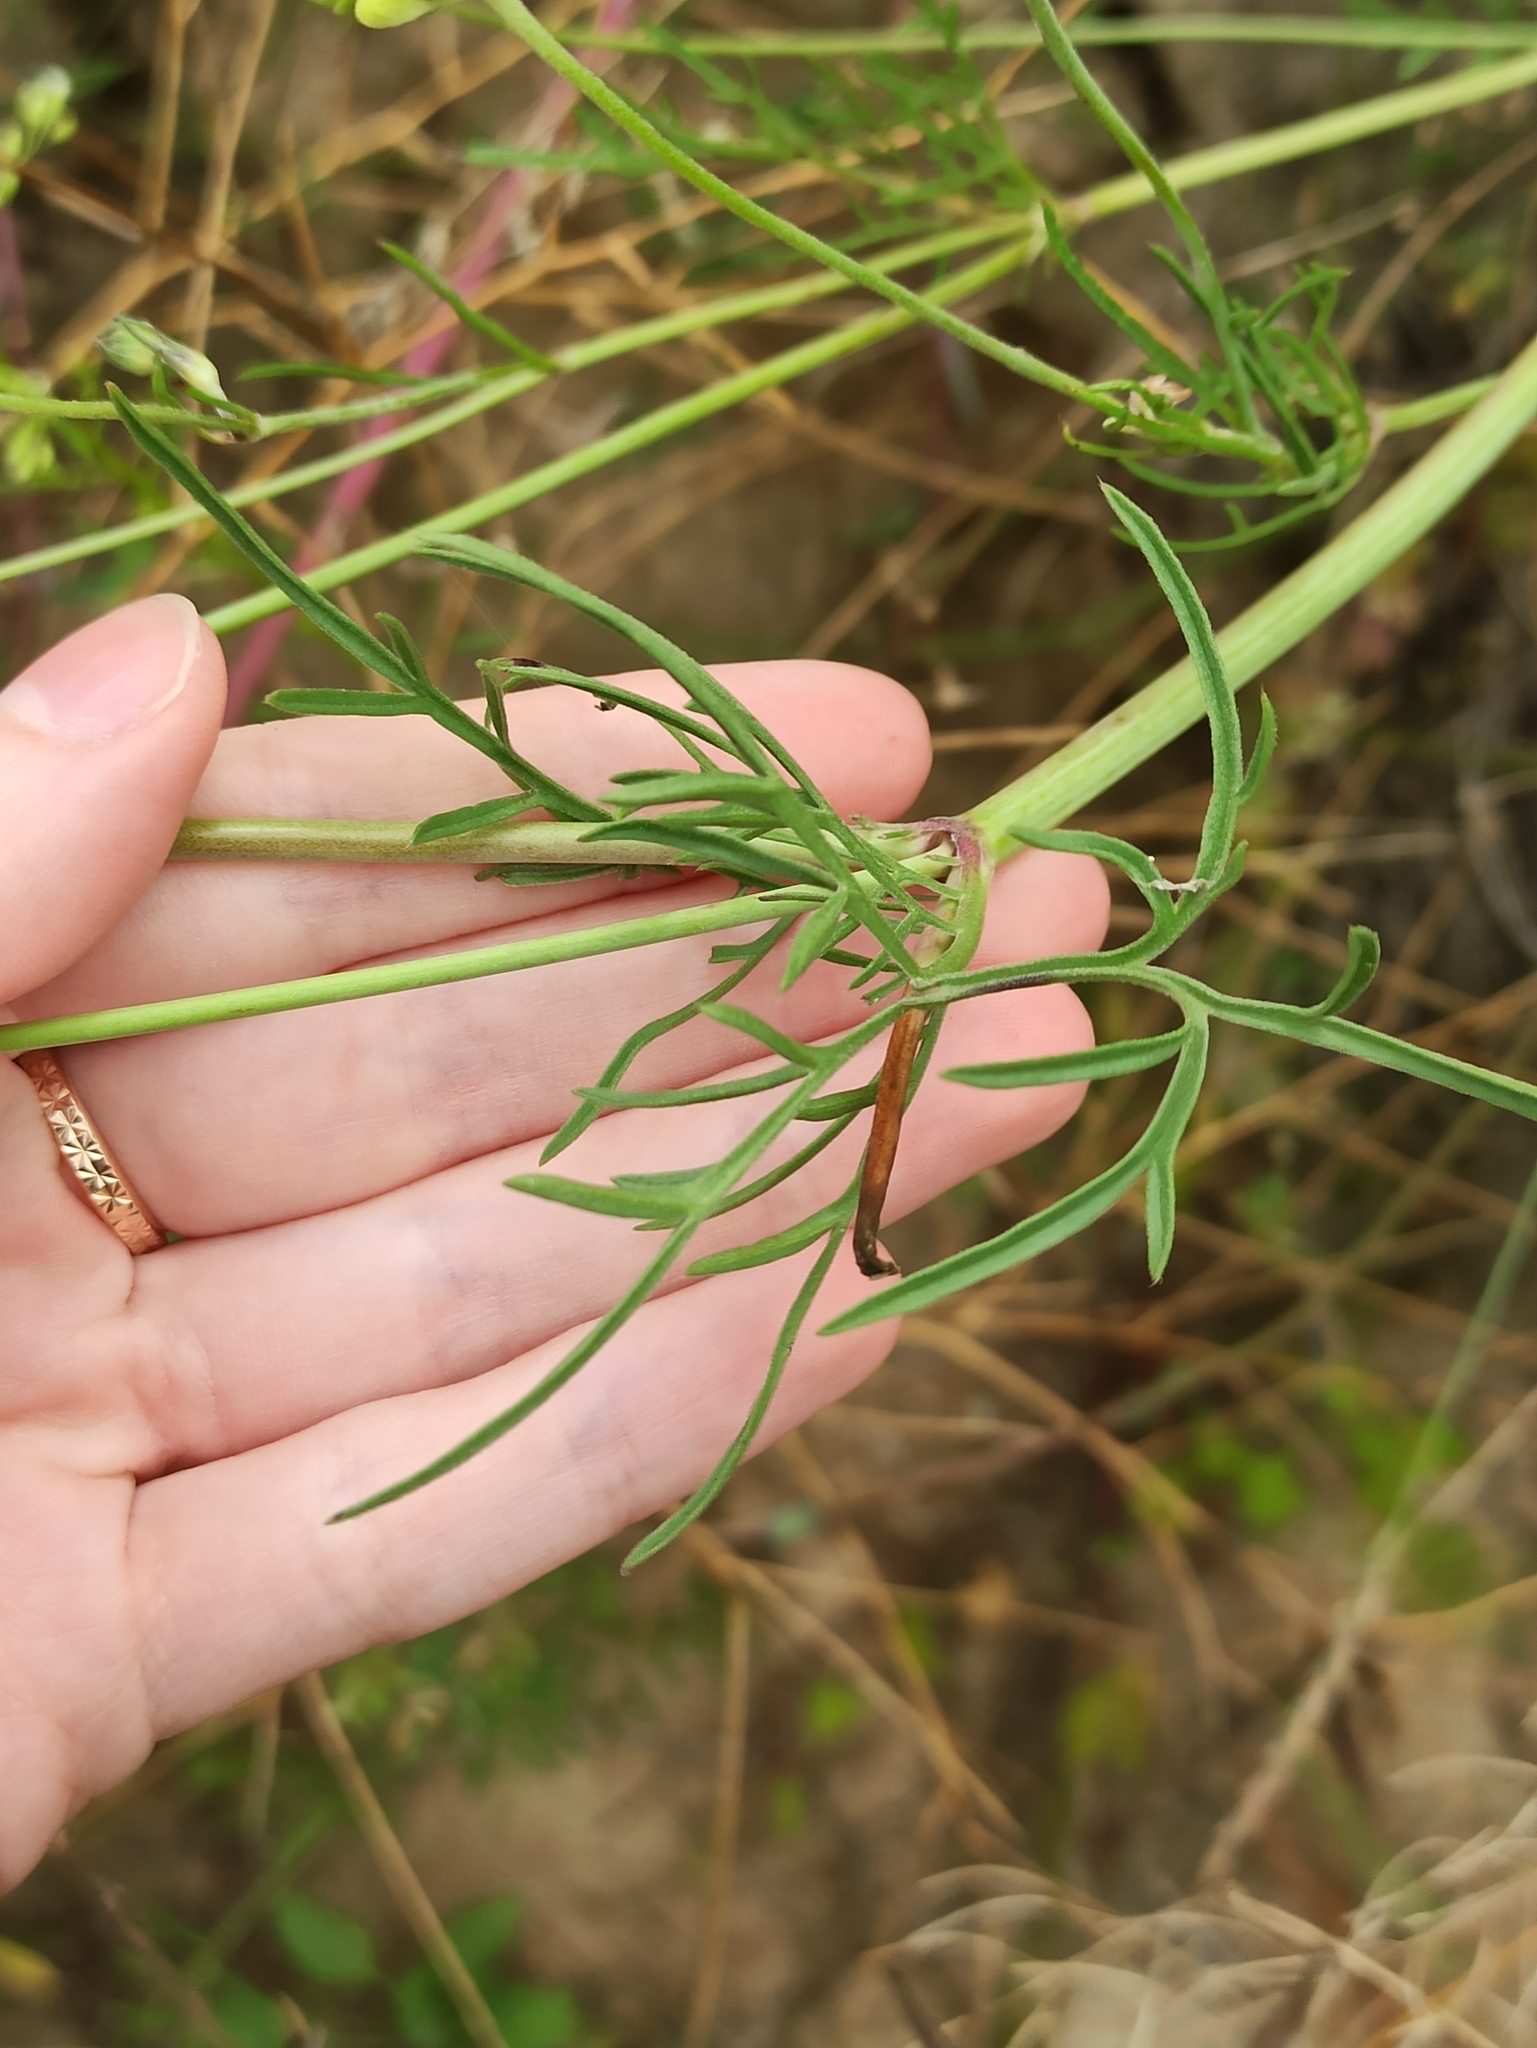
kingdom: Plantae
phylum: Tracheophyta
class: Magnoliopsida
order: Dipsacales
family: Caprifoliaceae
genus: Scabiosa
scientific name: Scabiosa ochroleuca
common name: Cream pincushions
